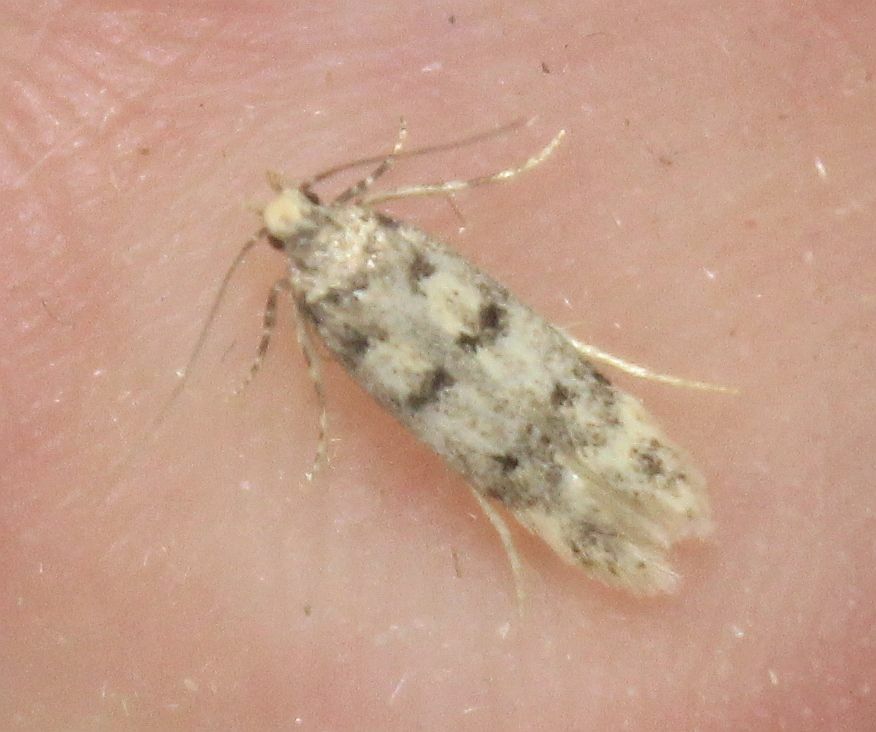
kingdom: Animalia
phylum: Arthropoda
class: Insecta
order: Lepidoptera
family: Gelechiidae
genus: Bryotropha
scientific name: Bryotropha domestica
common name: House groundling
